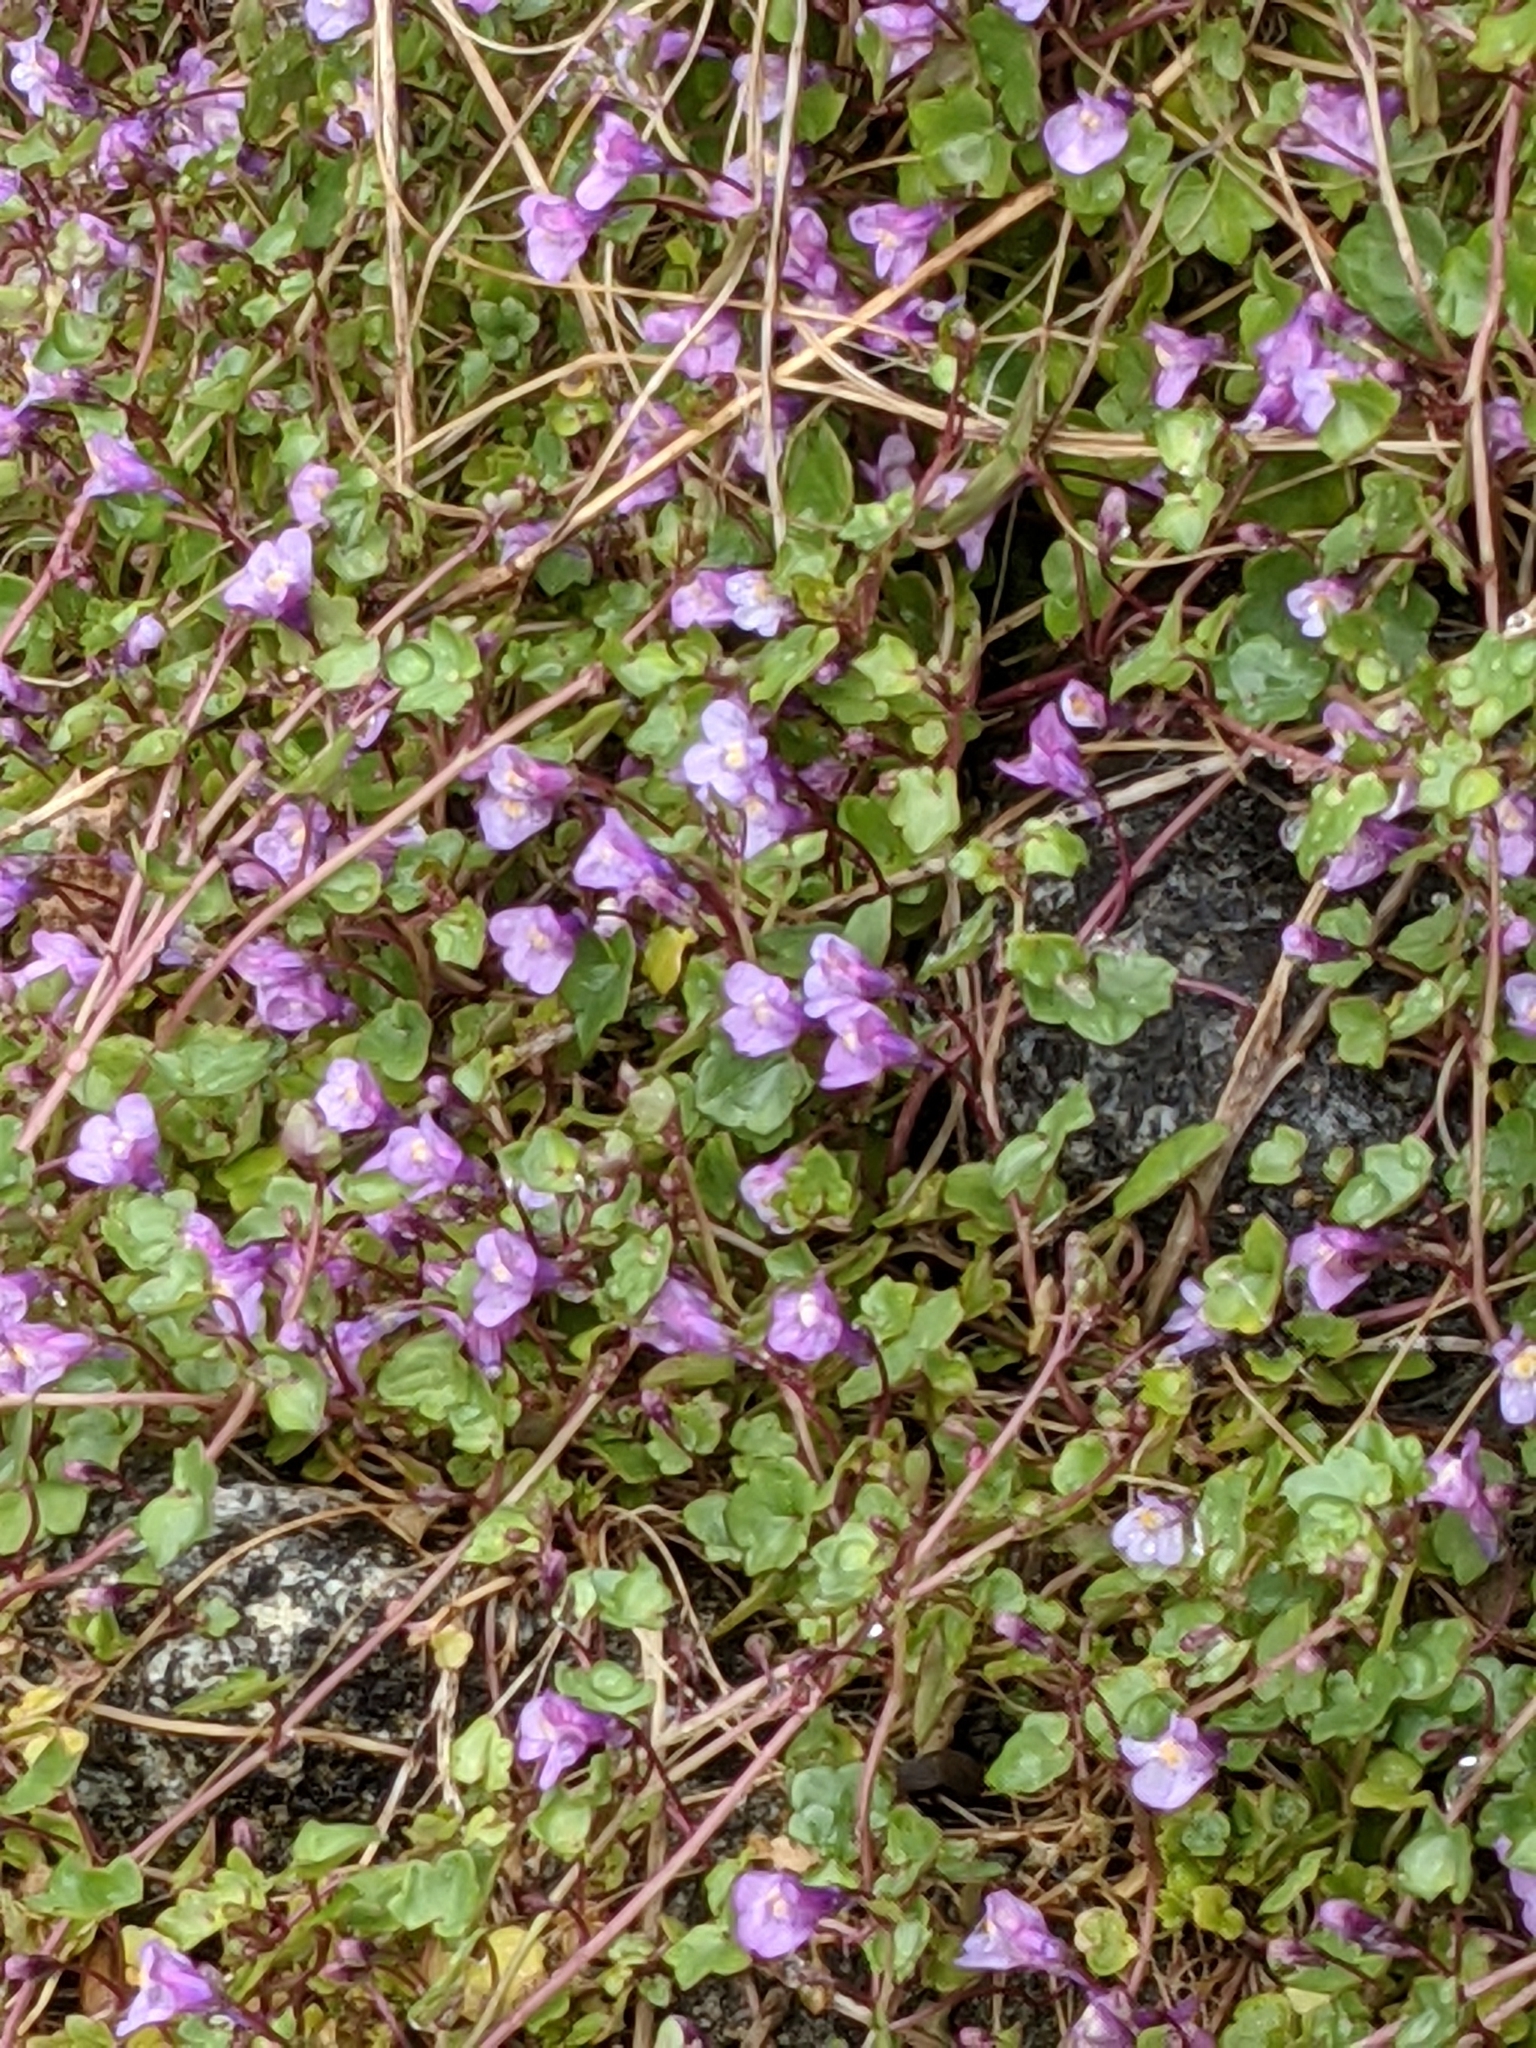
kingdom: Plantae
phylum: Tracheophyta
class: Magnoliopsida
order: Lamiales
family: Plantaginaceae
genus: Cymbalaria
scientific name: Cymbalaria muralis
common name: Ivy-leaved toadflax
